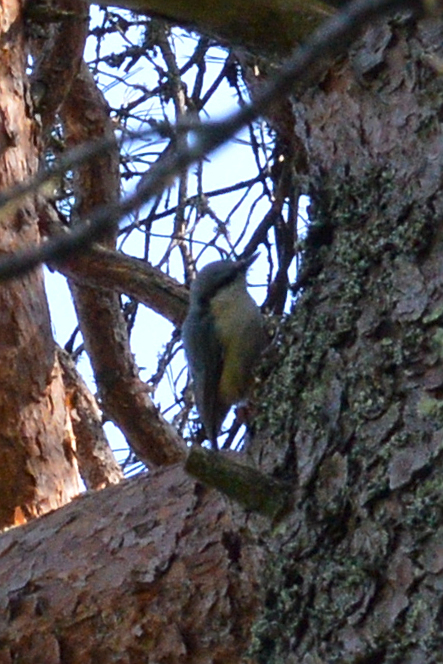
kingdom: Animalia
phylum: Chordata
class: Aves
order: Passeriformes
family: Sittidae
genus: Sitta
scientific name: Sitta europaea
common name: Eurasian nuthatch
